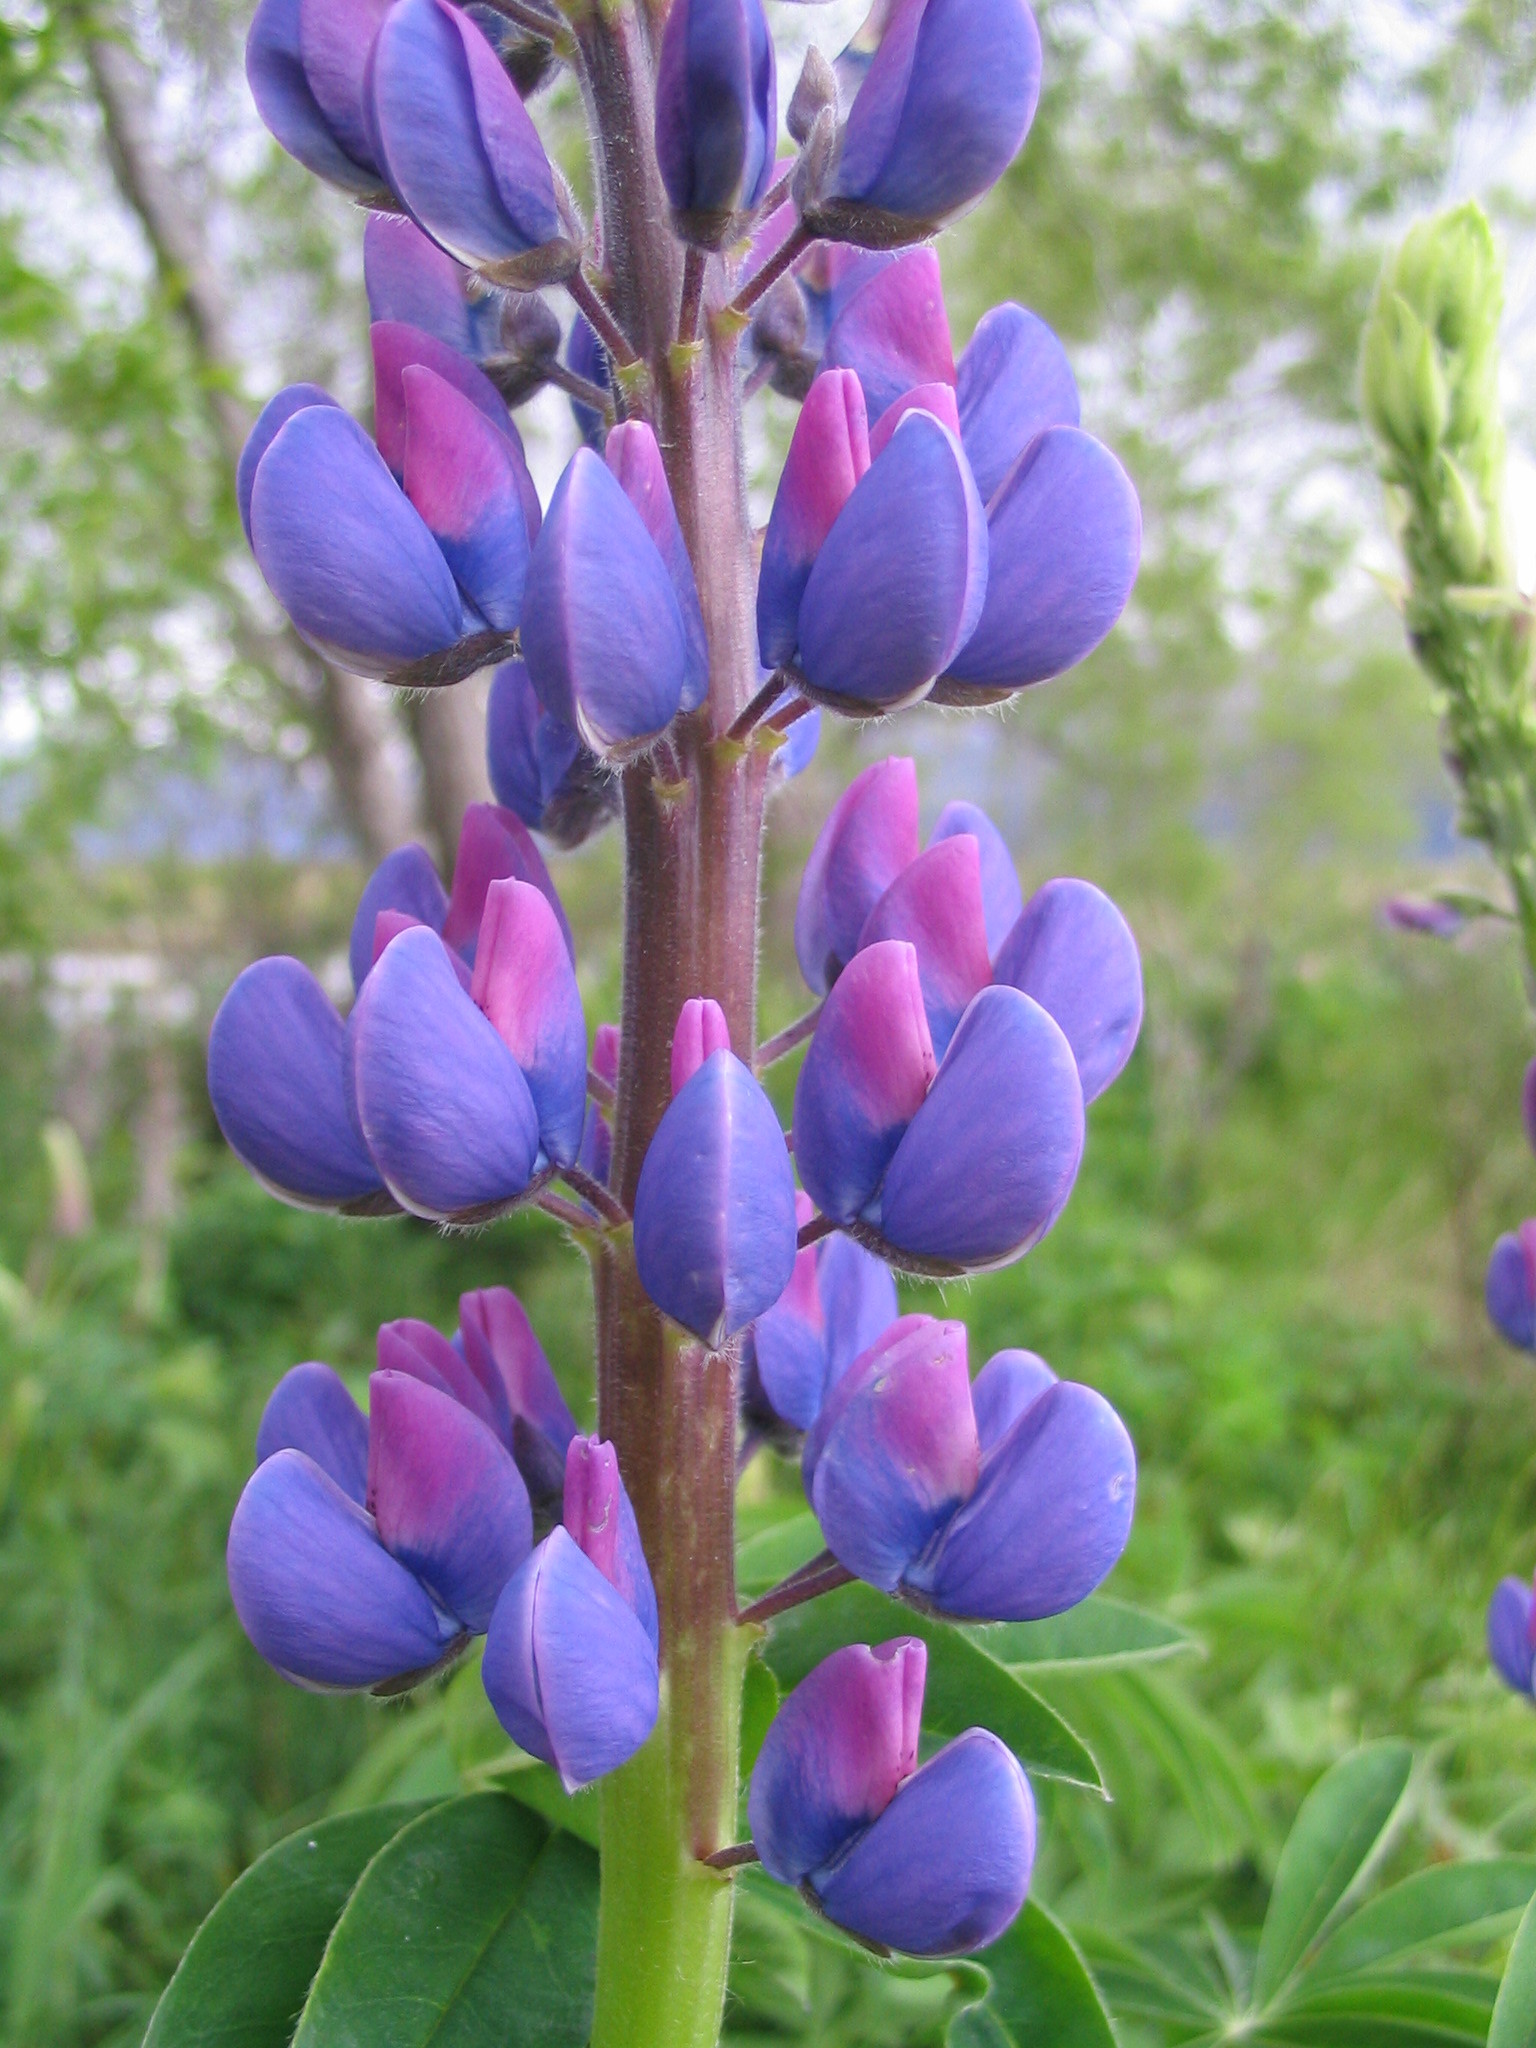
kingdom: Plantae
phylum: Tracheophyta
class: Magnoliopsida
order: Fabales
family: Fabaceae
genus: Lupinus
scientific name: Lupinus polyphyllus
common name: Garden lupin
